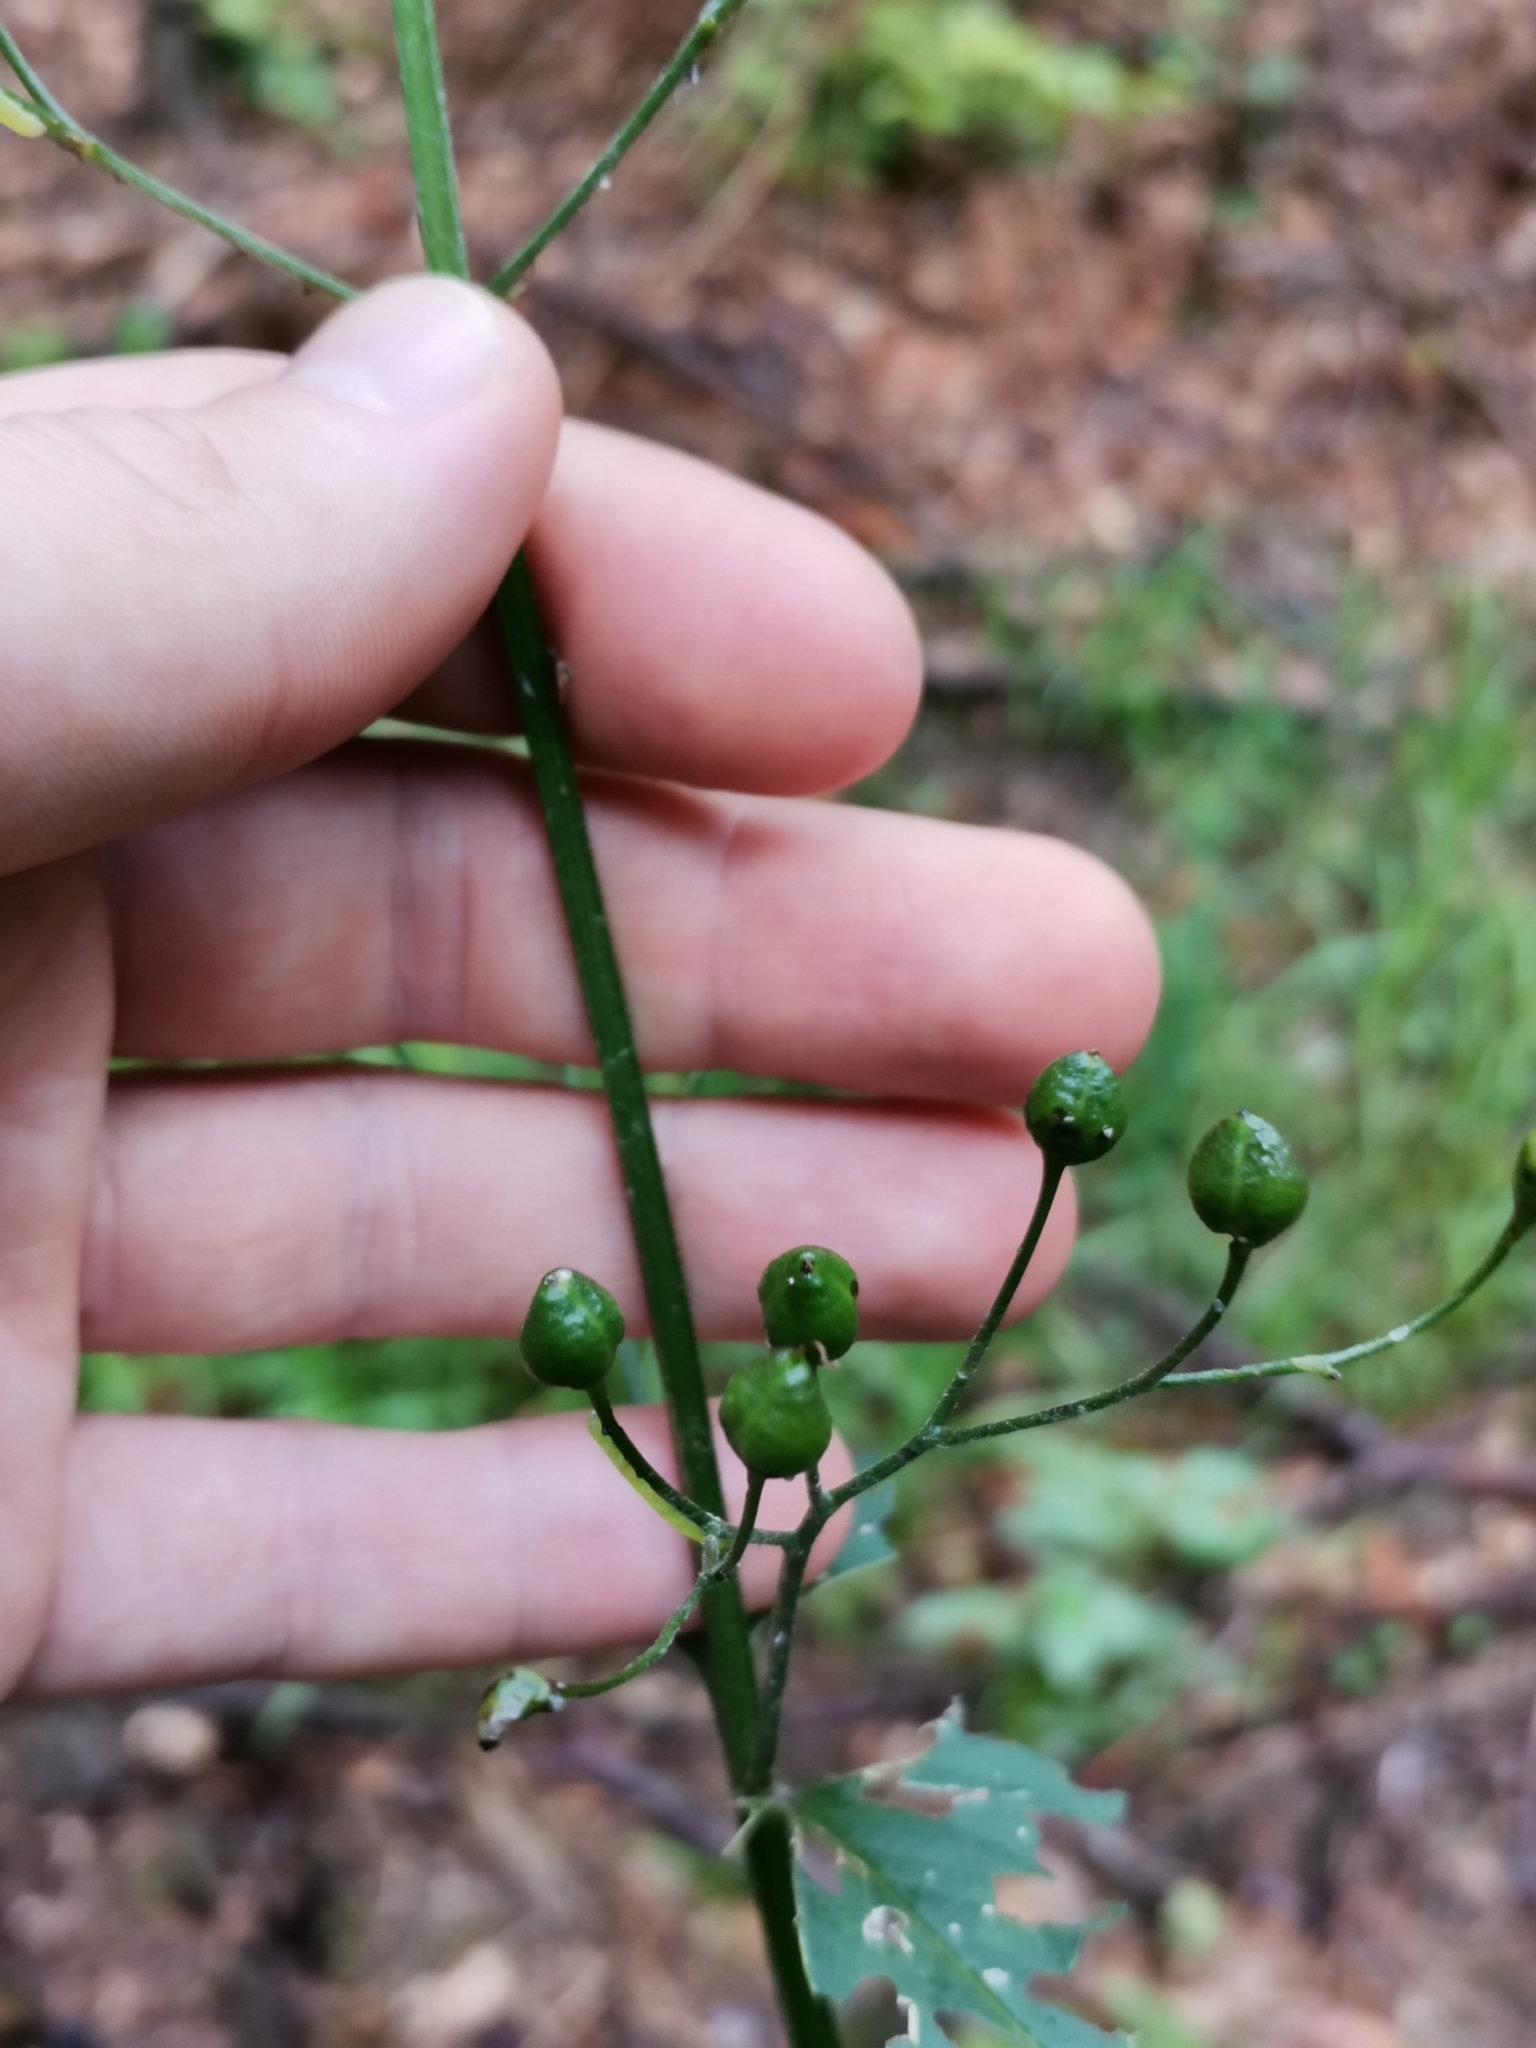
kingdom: Plantae
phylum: Tracheophyta
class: Magnoliopsida
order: Lamiales
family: Scrophulariaceae
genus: Scrophularia
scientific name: Scrophularia nodosa
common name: Common figwort
